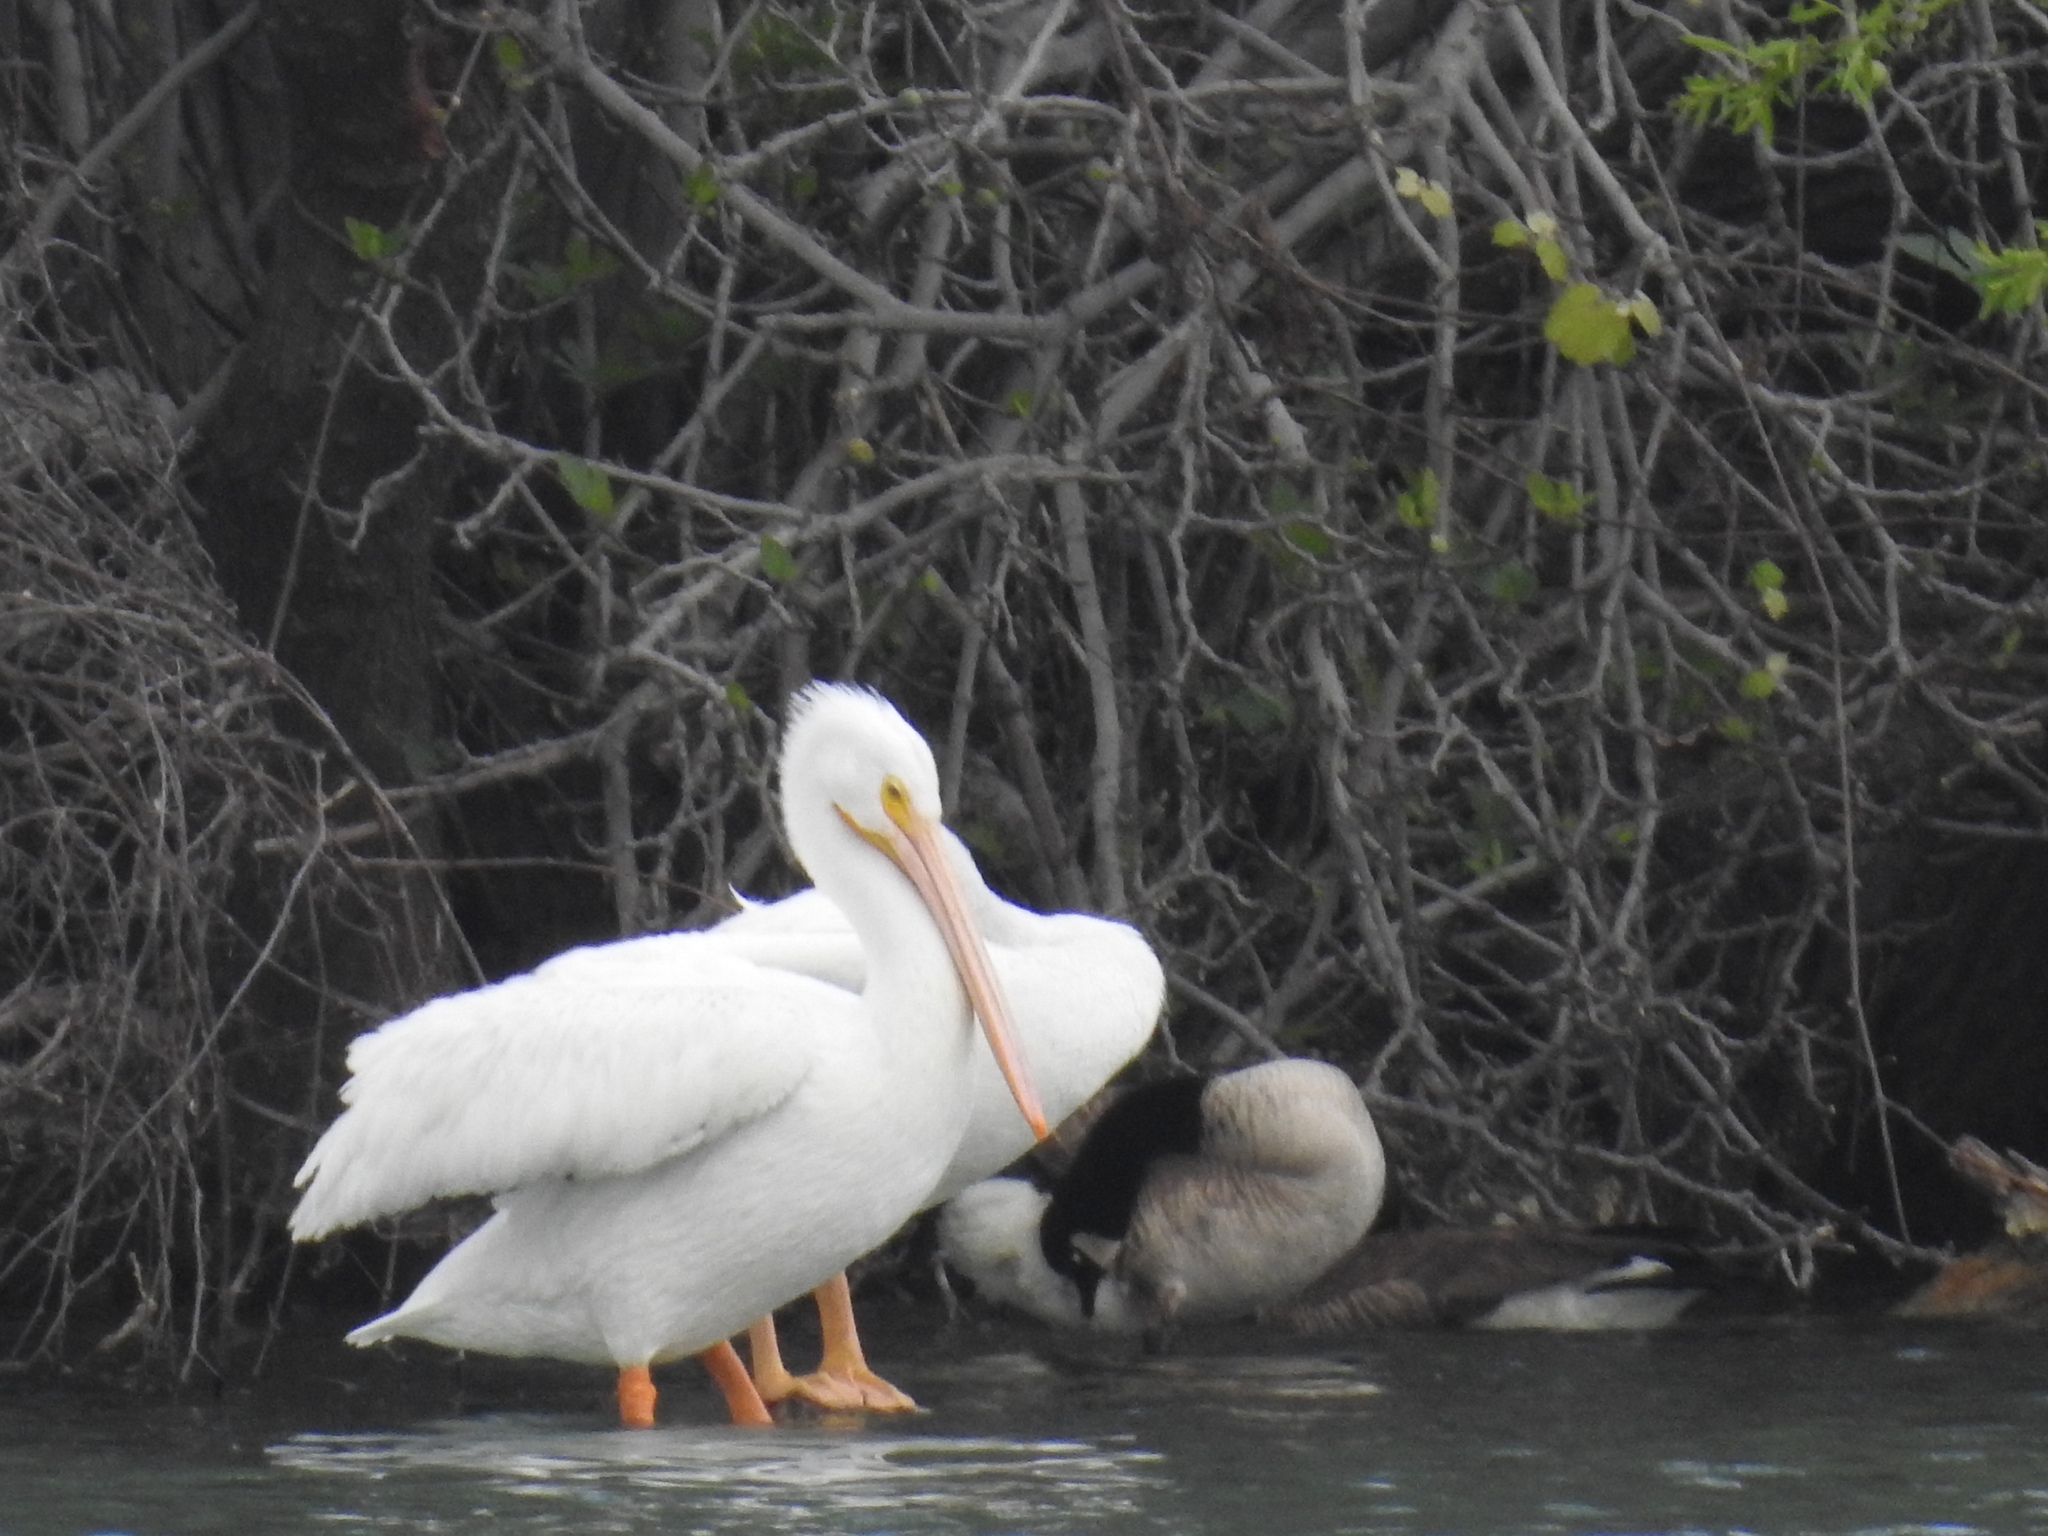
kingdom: Animalia
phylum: Chordata
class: Aves
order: Pelecaniformes
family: Pelecanidae
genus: Pelecanus
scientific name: Pelecanus erythrorhynchos
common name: American white pelican
